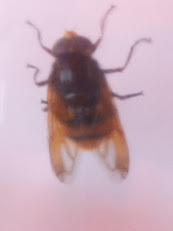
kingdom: Animalia
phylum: Arthropoda
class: Insecta
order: Diptera
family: Syrphidae
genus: Volucella
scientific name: Volucella zonaria
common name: Hornet hoverfly
